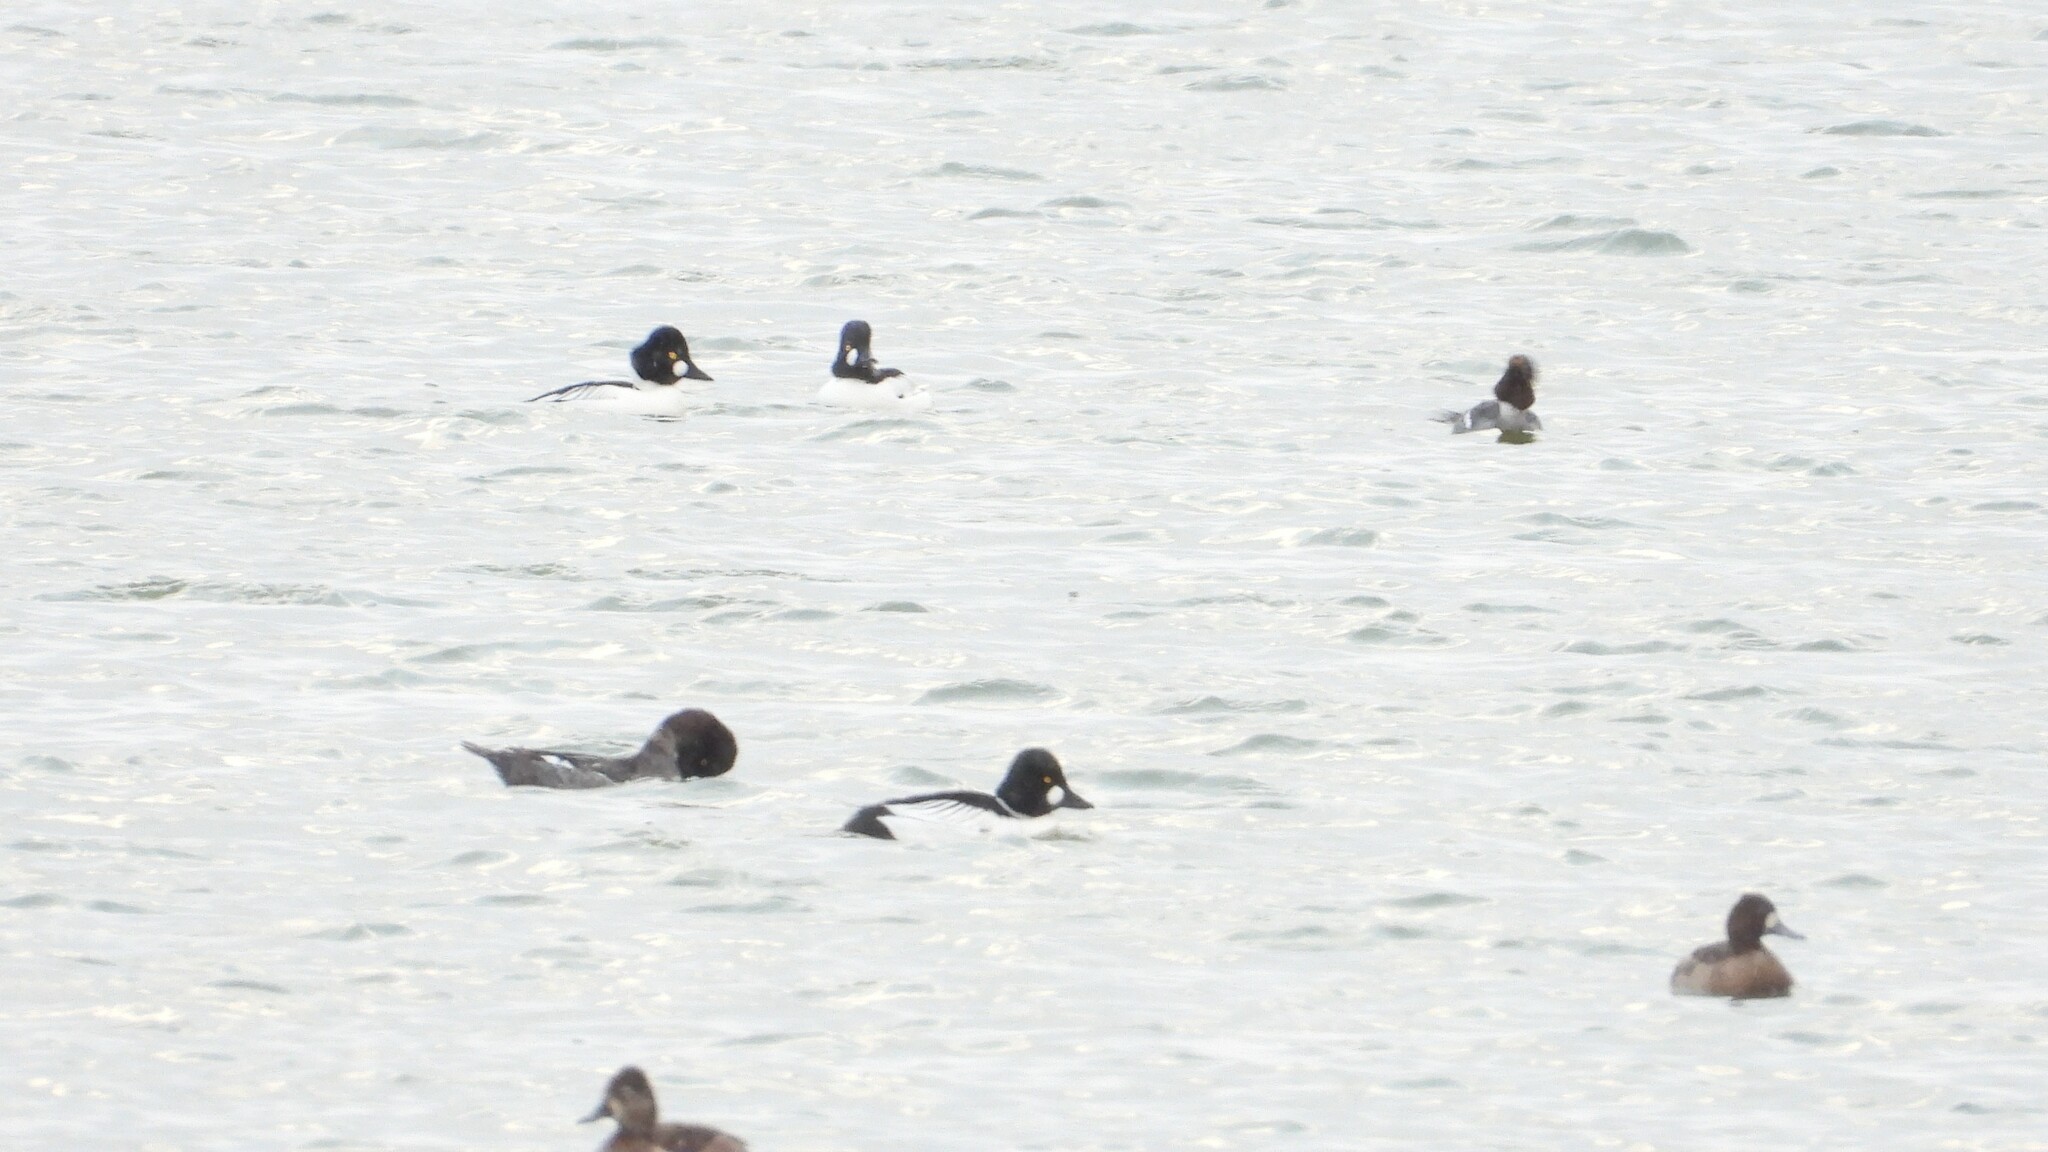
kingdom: Animalia
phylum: Chordata
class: Aves
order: Anseriformes
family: Anatidae
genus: Bucephala
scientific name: Bucephala clangula
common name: Common goldeneye
